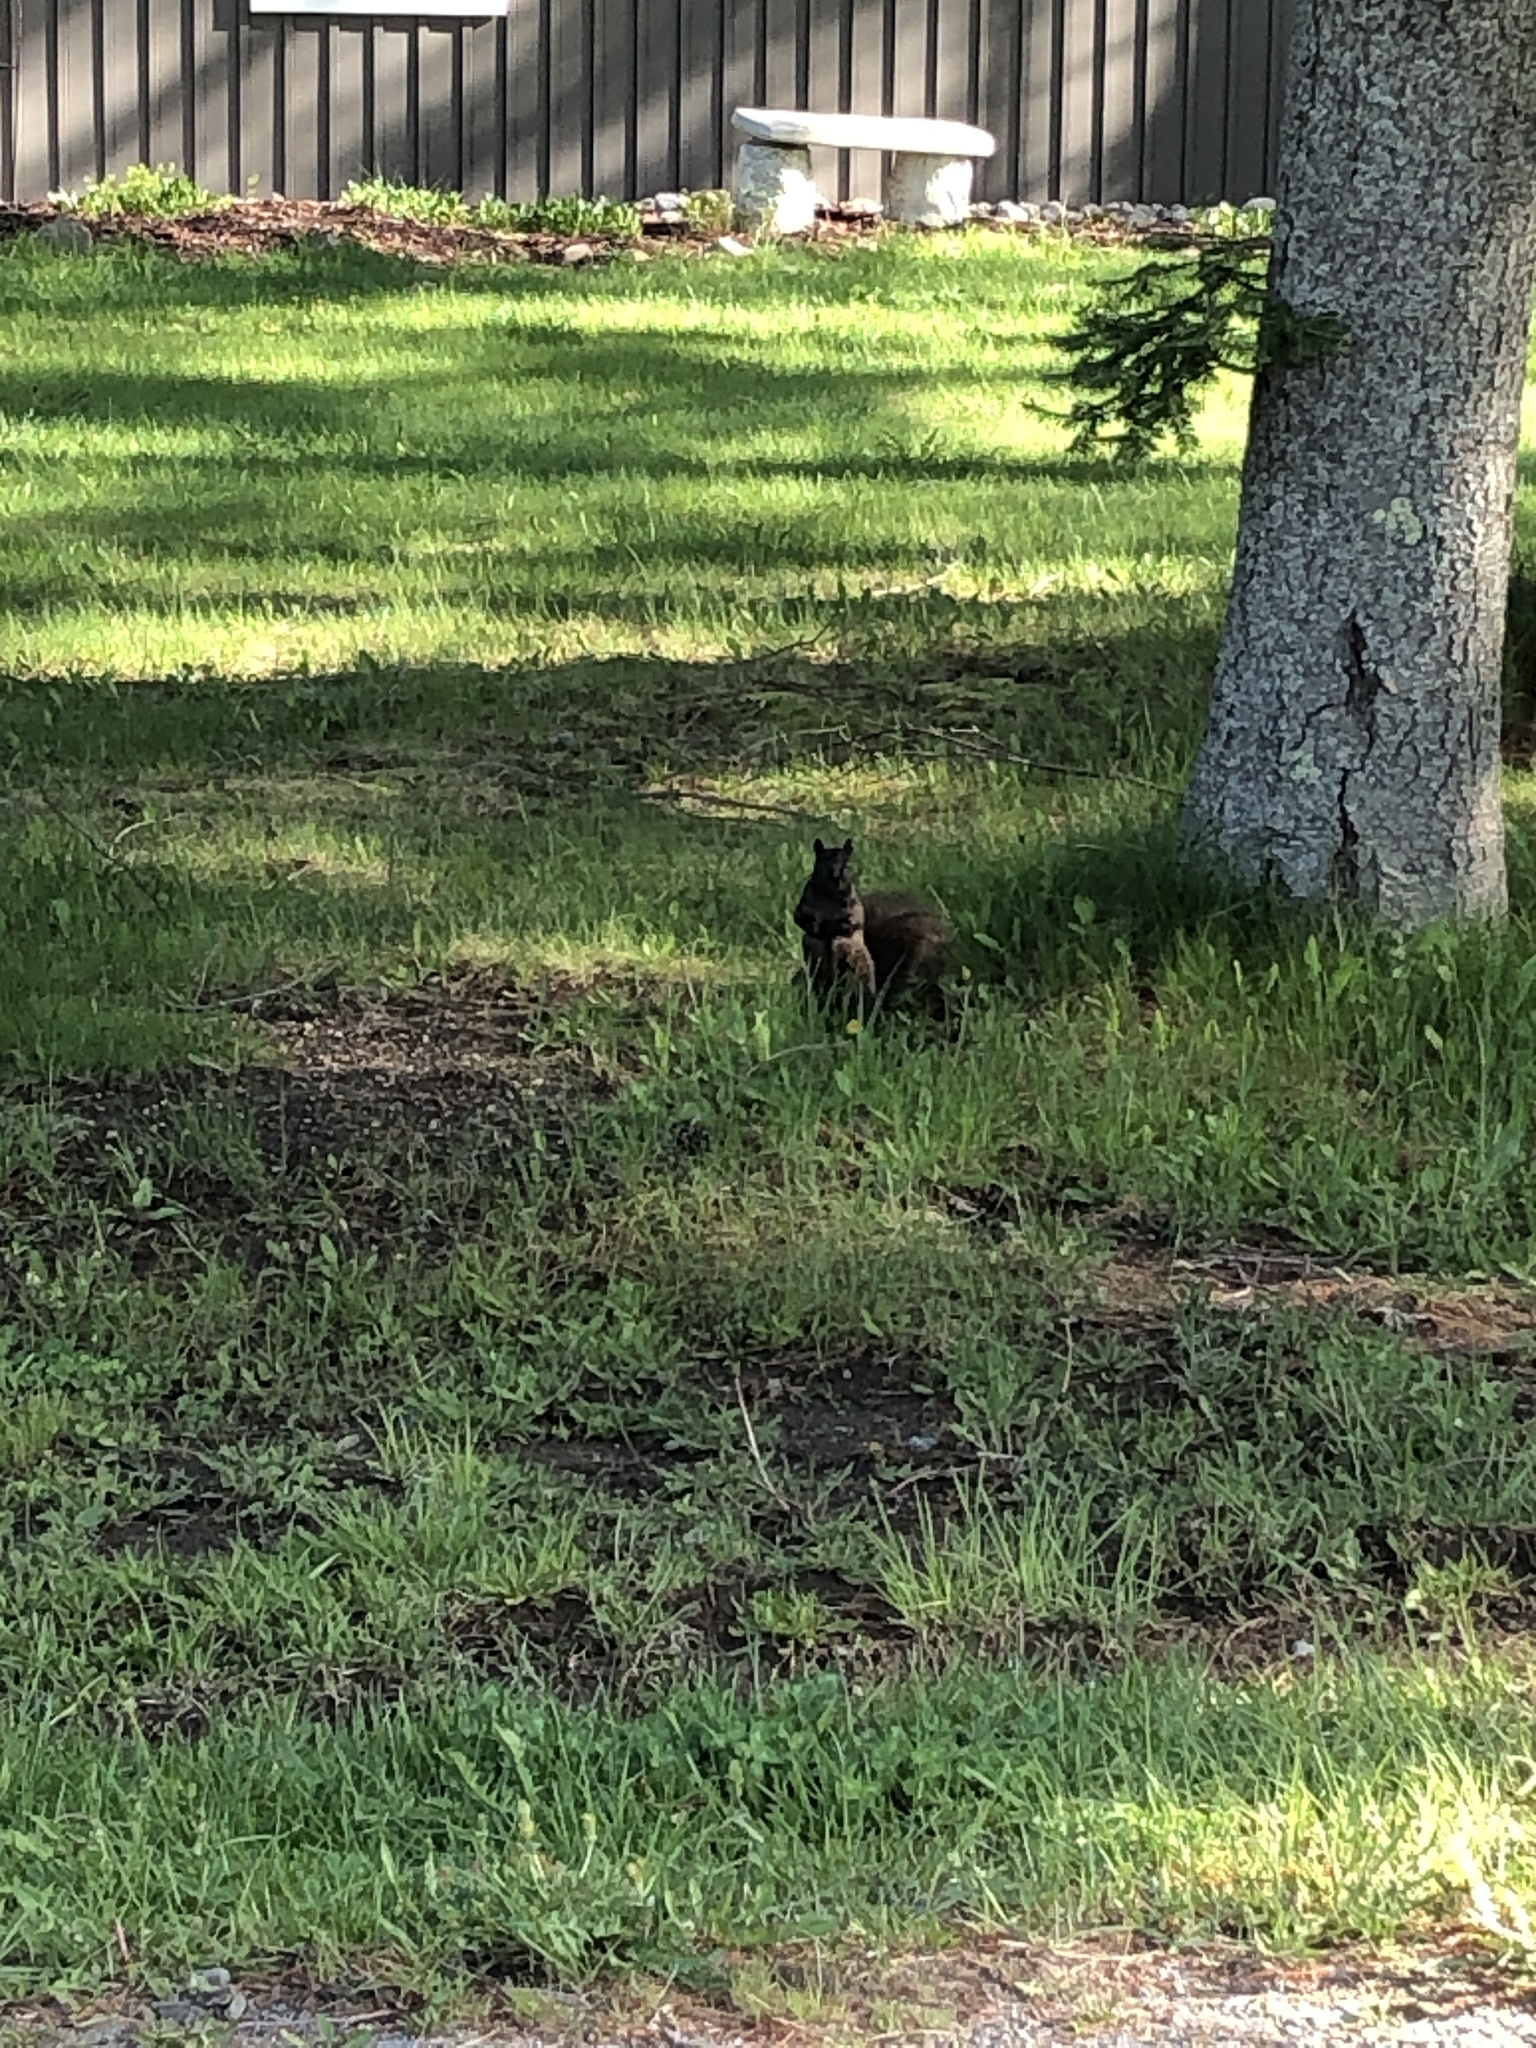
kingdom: Animalia
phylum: Chordata
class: Mammalia
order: Rodentia
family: Sciuridae
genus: Sciurus
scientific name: Sciurus carolinensis
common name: Eastern gray squirrel
